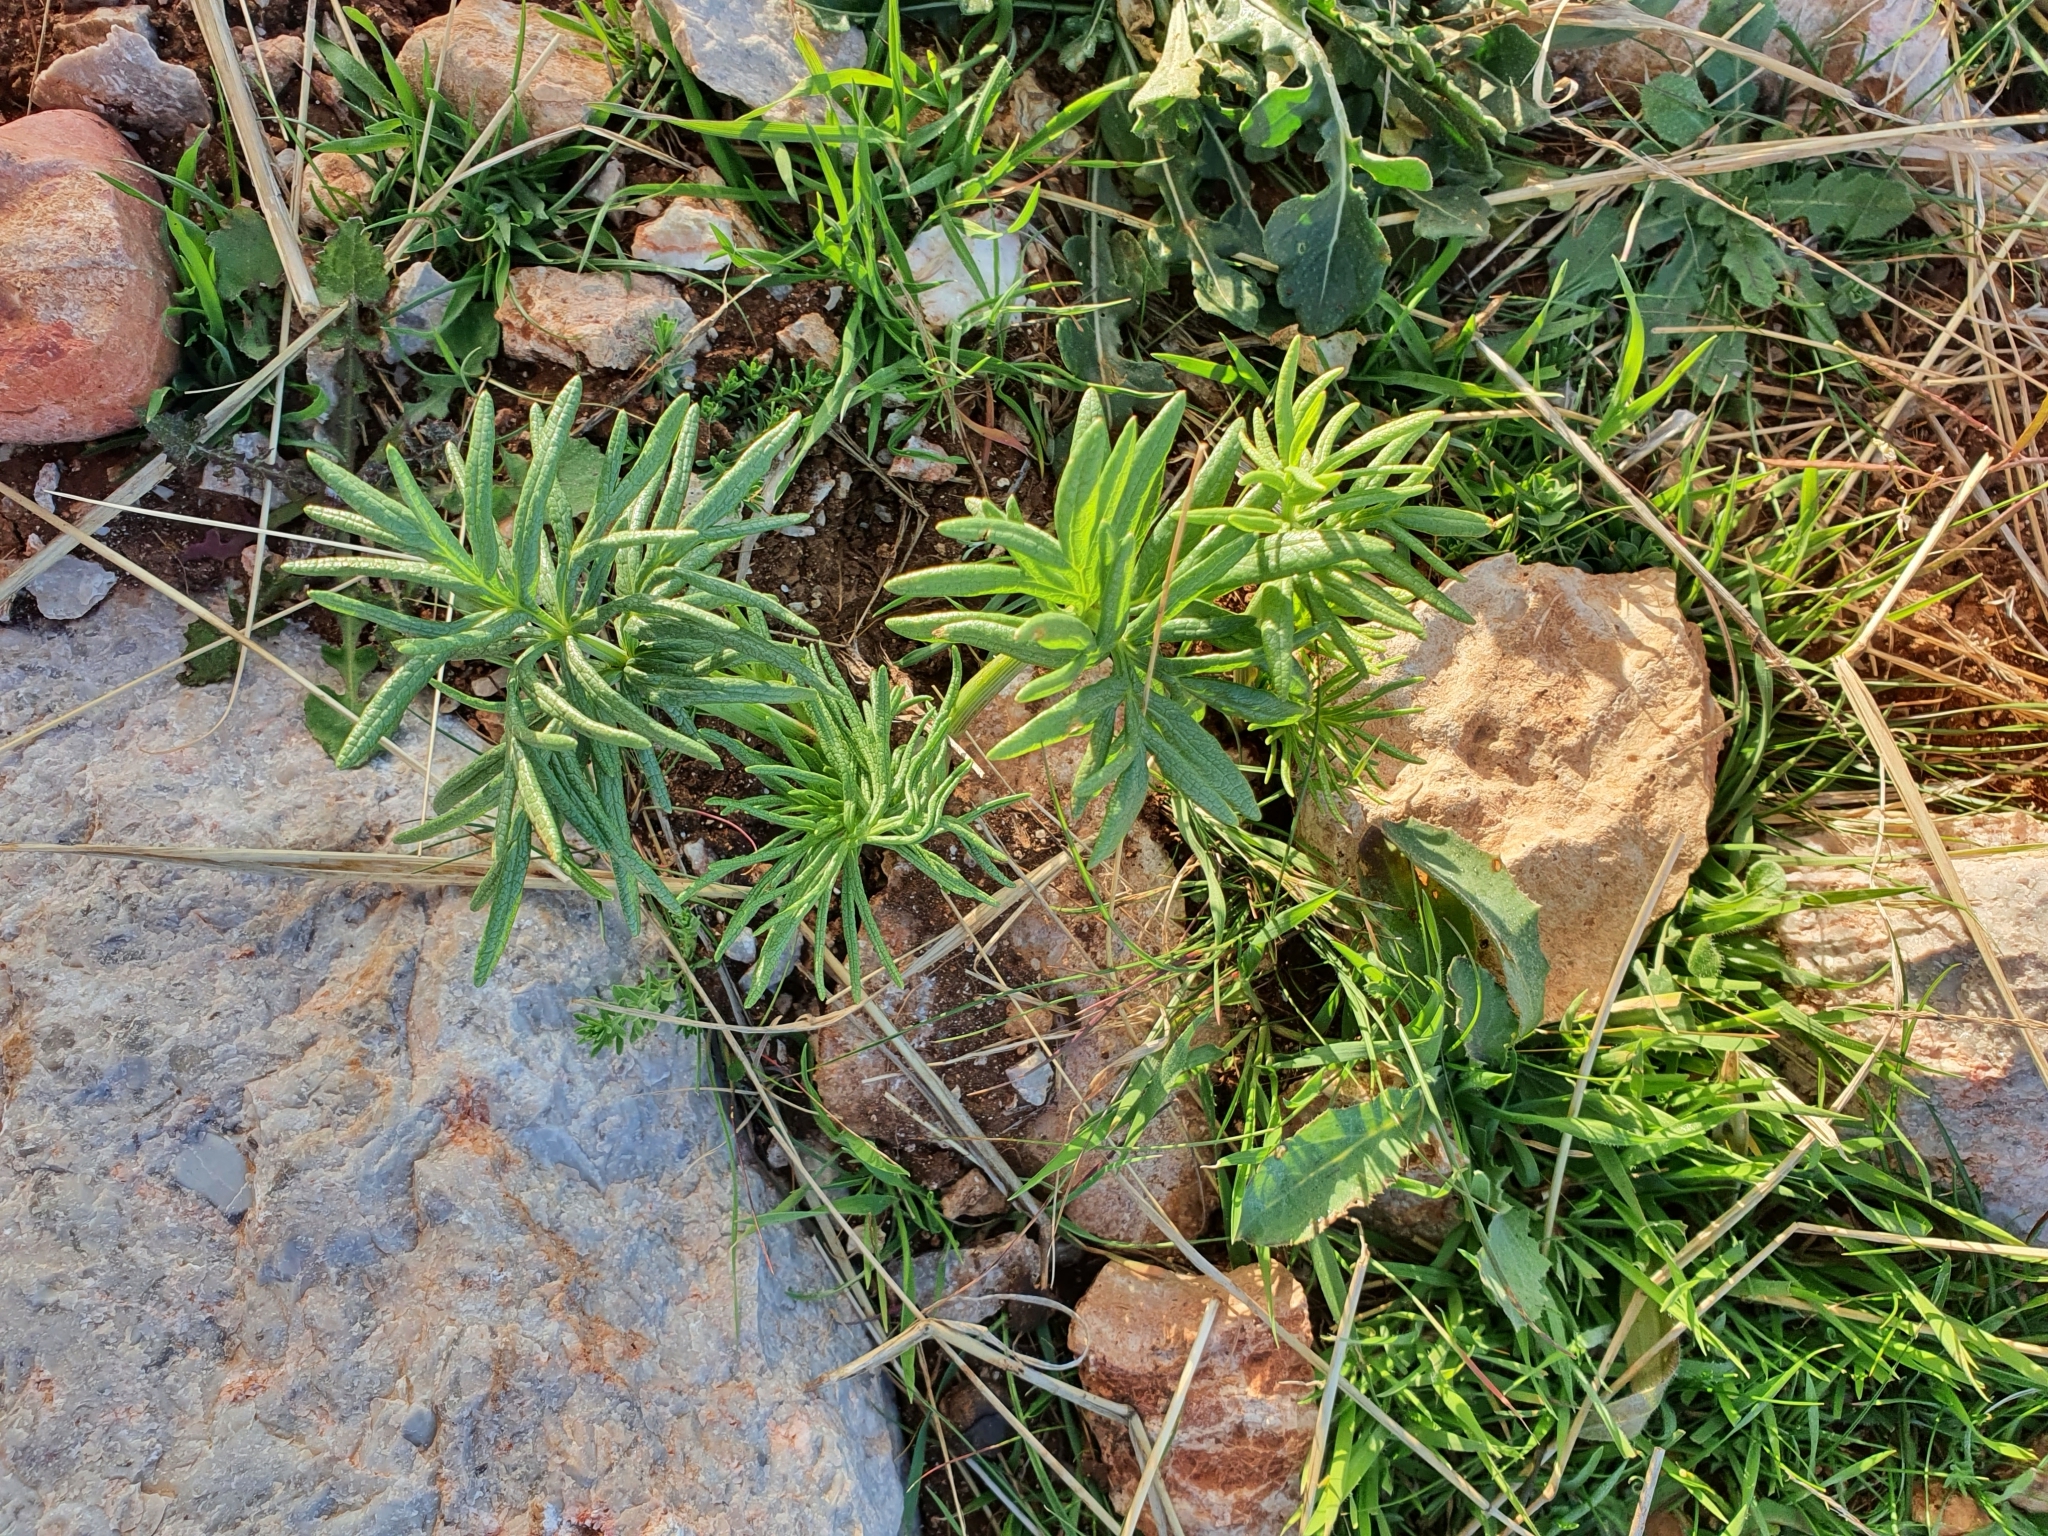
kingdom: Plantae
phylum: Tracheophyta
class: Magnoliopsida
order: Apiales
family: Apiaceae
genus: Thapsia
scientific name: Thapsia garganica
